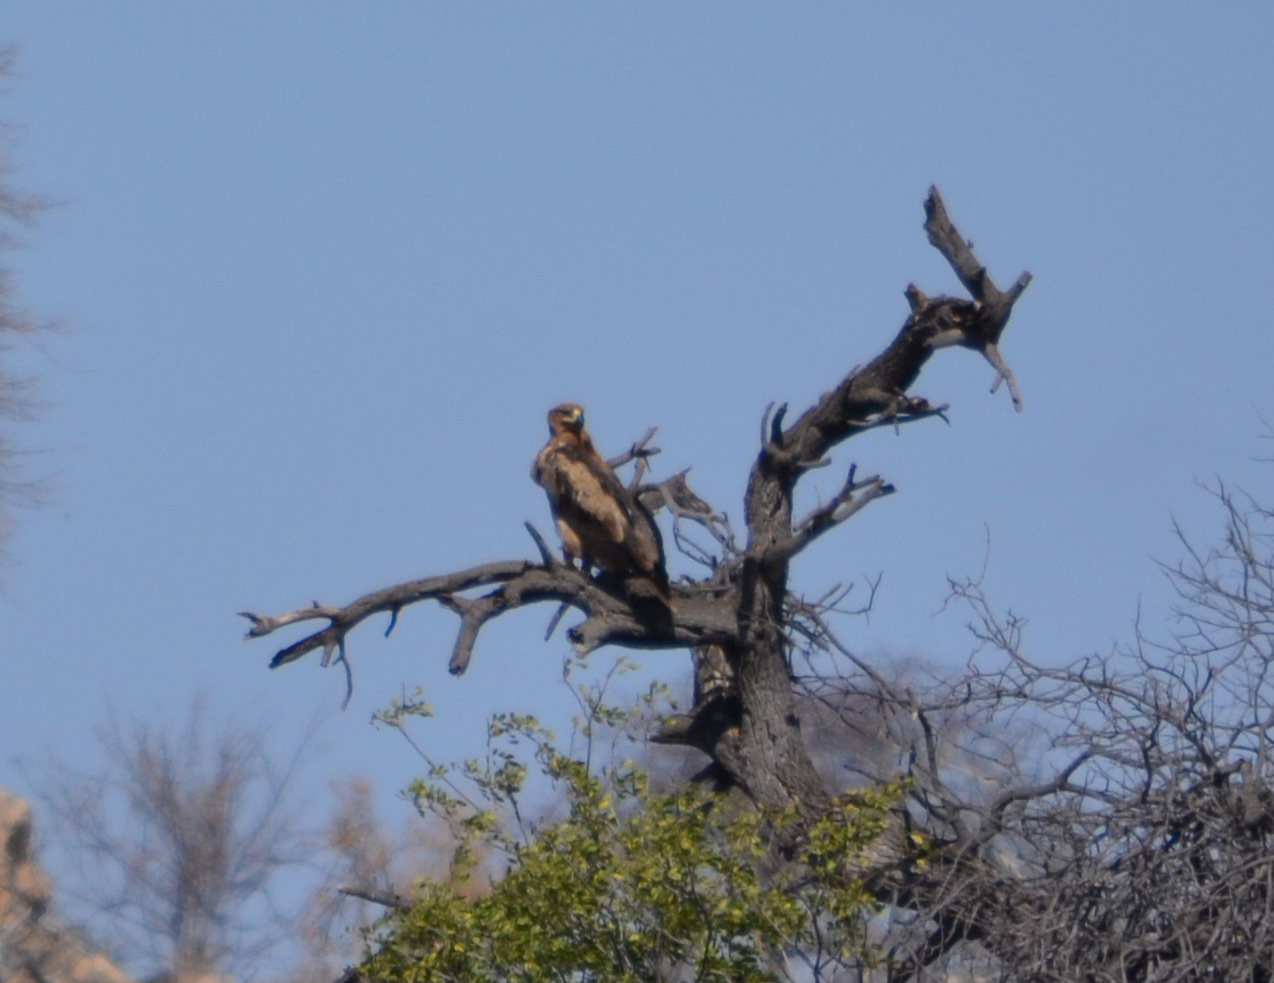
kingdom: Animalia
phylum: Chordata
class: Aves
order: Accipitriformes
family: Accipitridae
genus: Aquila
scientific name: Aquila rapax
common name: Tawny eagle
